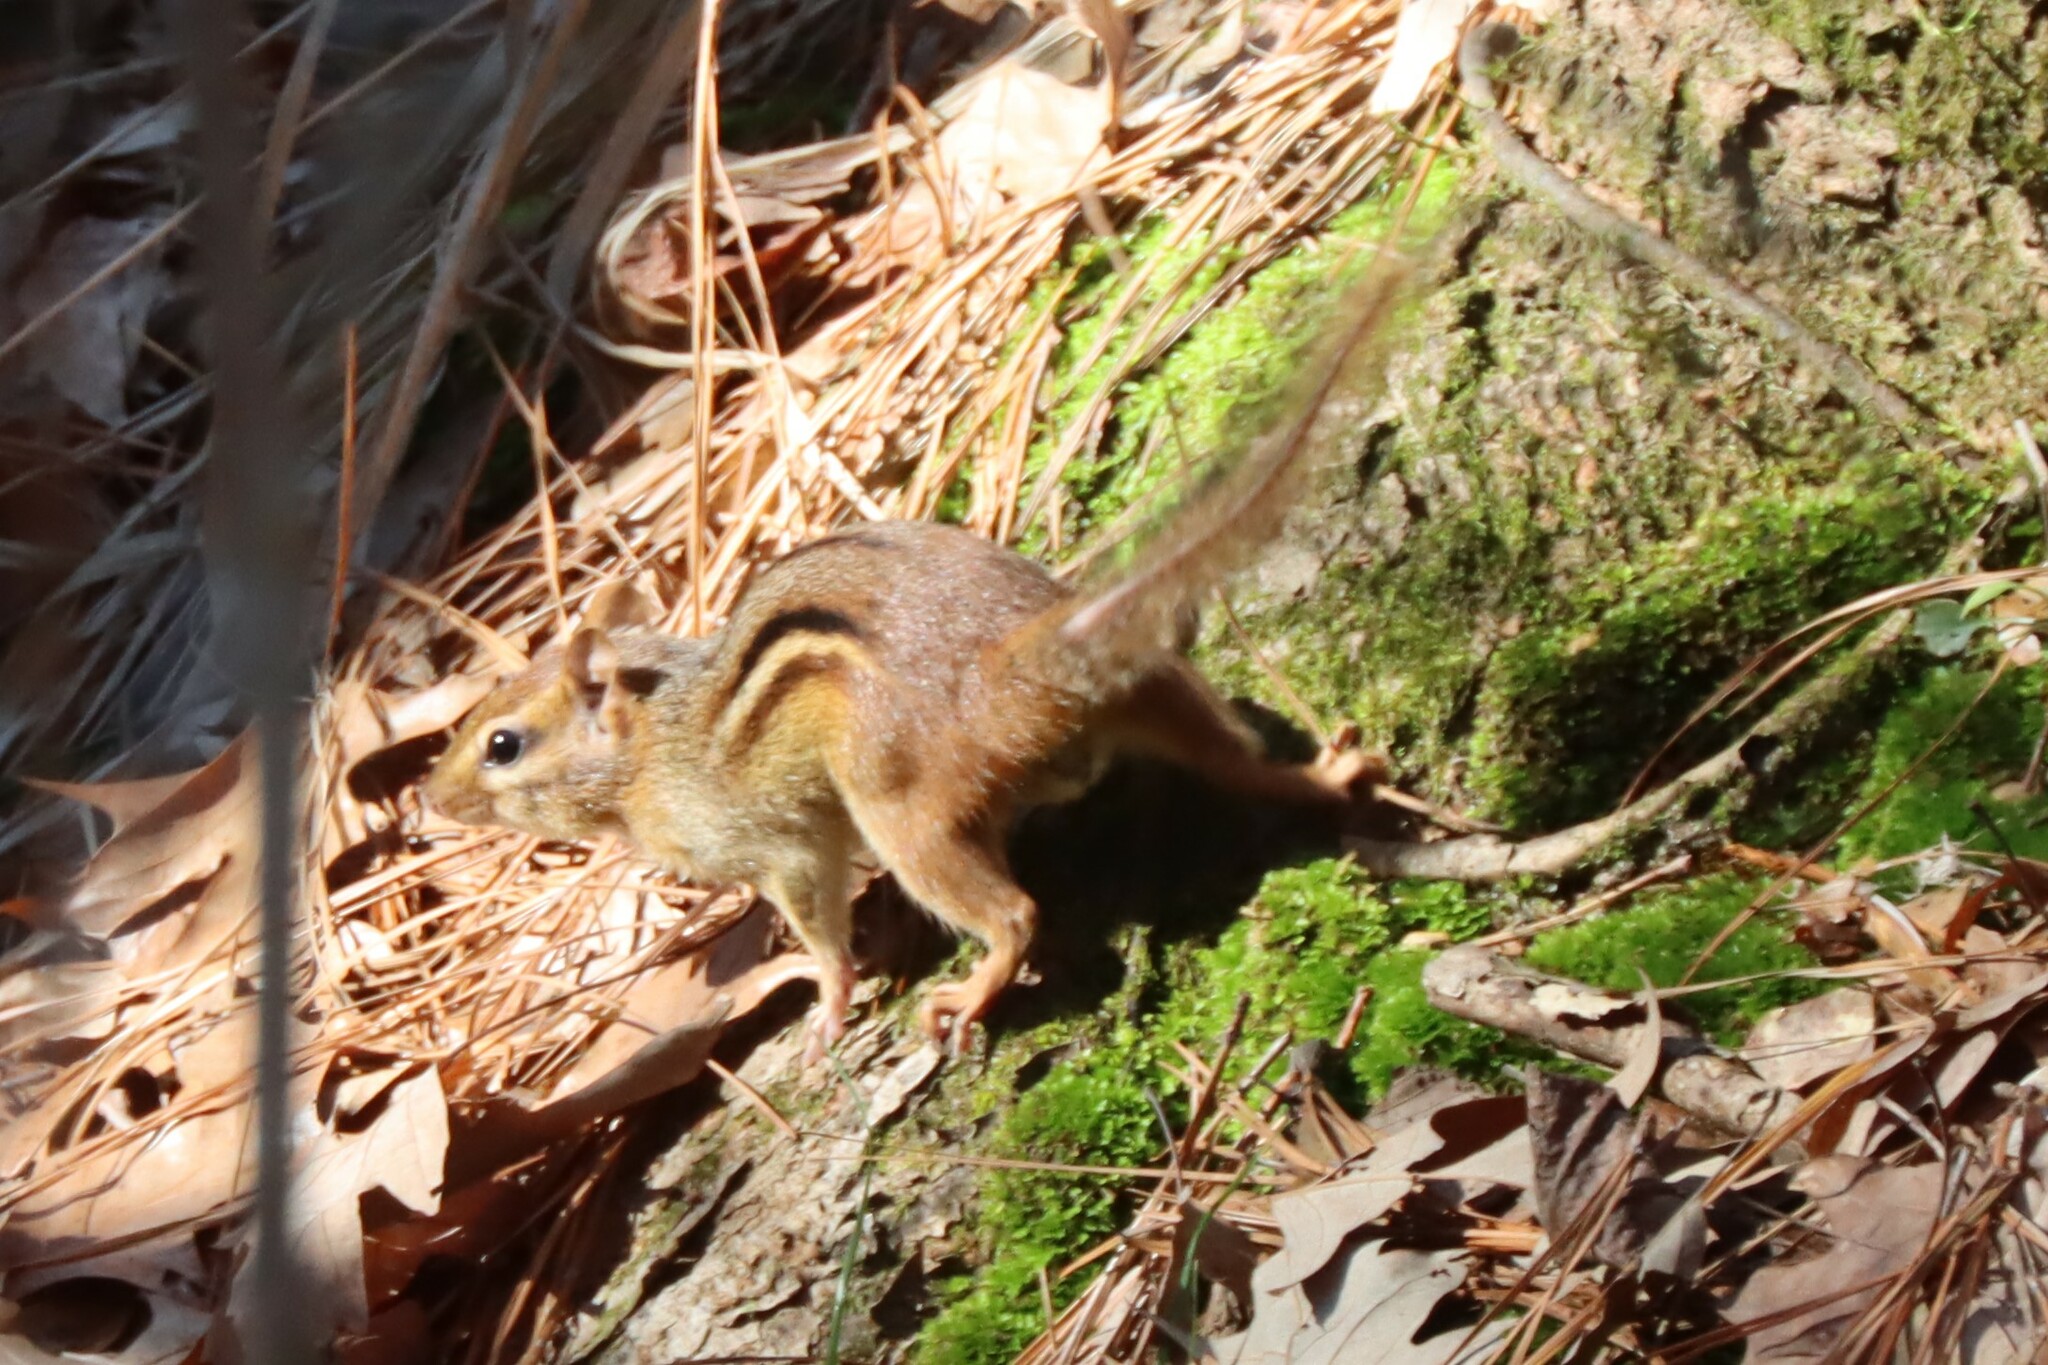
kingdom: Animalia
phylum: Chordata
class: Mammalia
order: Rodentia
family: Sciuridae
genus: Tamias
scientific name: Tamias striatus
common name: Eastern chipmunk
